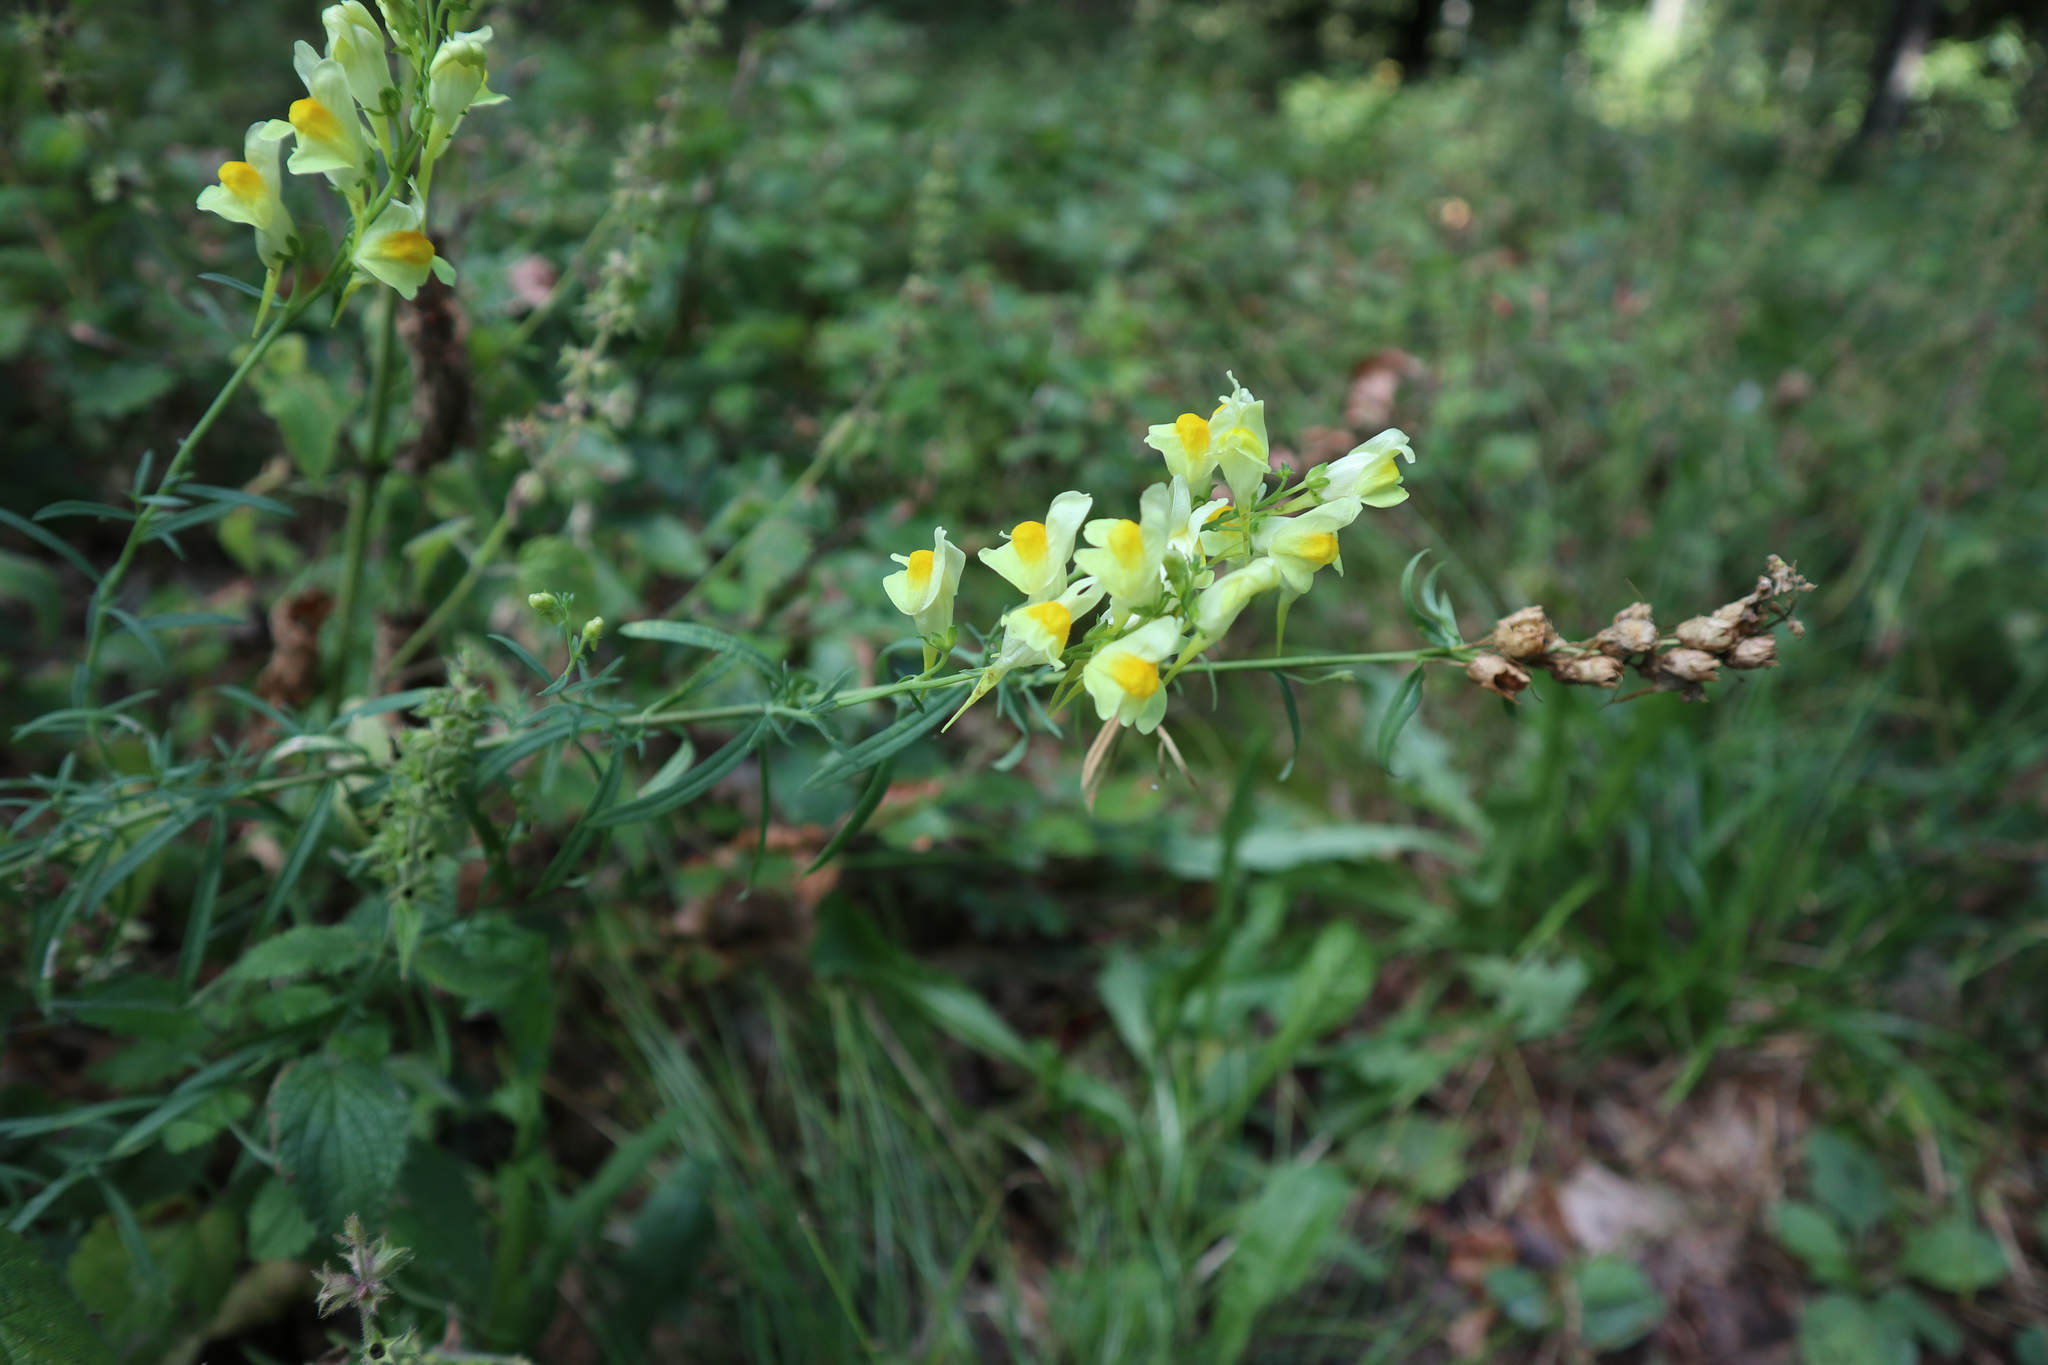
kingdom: Plantae
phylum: Tracheophyta
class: Magnoliopsida
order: Lamiales
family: Plantaginaceae
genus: Linaria
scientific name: Linaria vulgaris
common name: Butter and eggs
